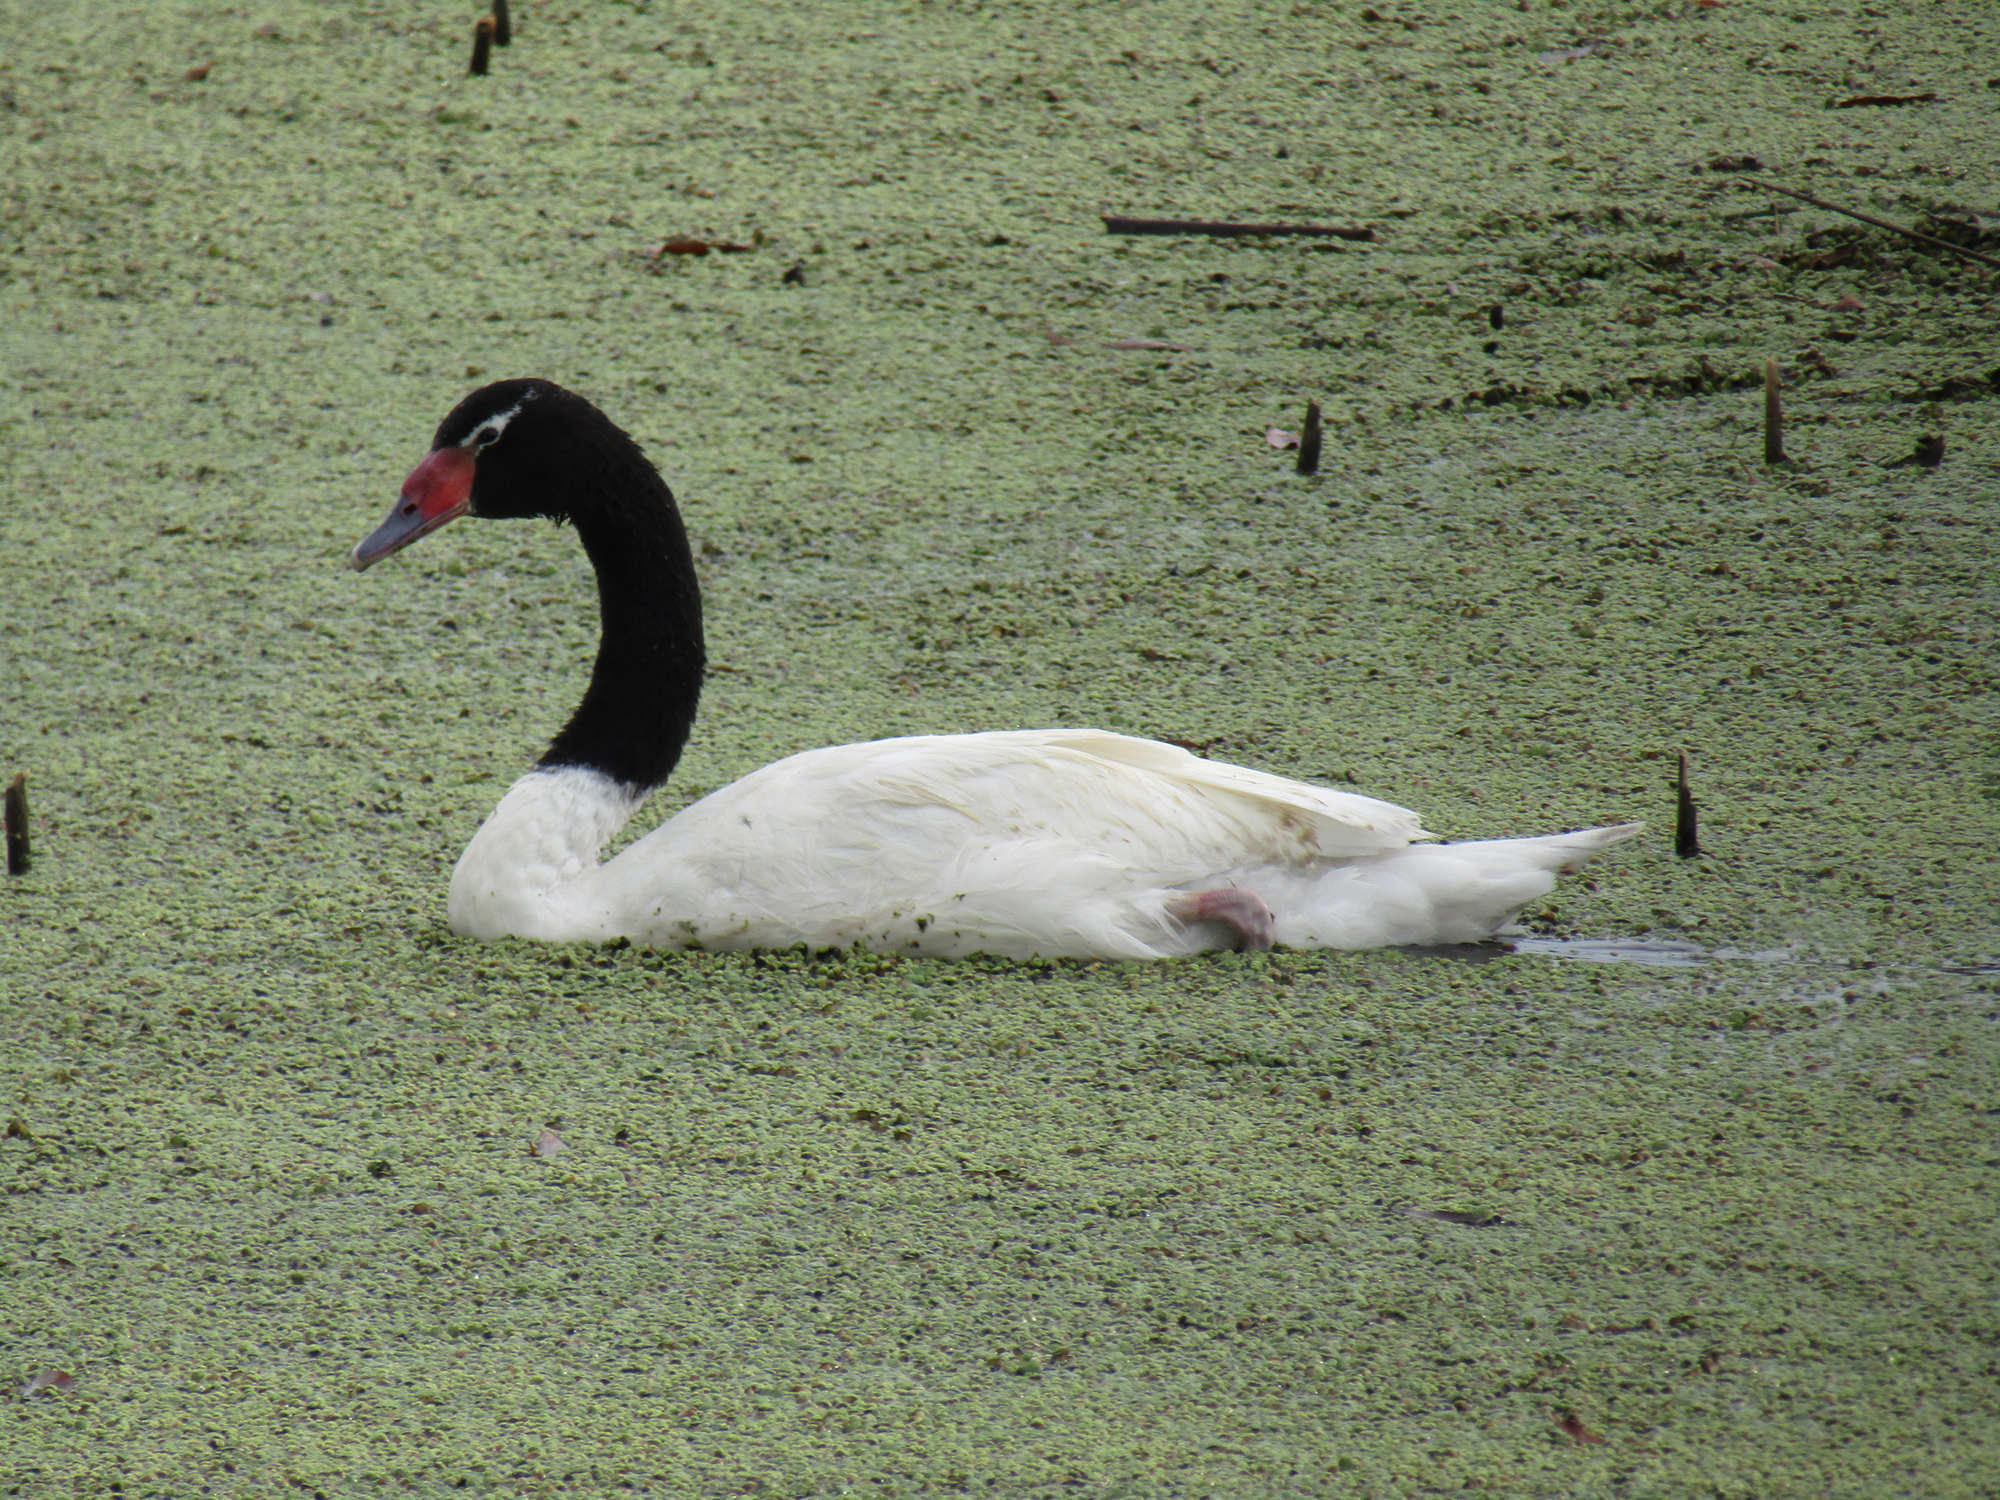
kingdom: Animalia
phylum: Chordata
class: Aves
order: Anseriformes
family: Anatidae
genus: Cygnus
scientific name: Cygnus melancoryphus
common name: Black-necked swan
